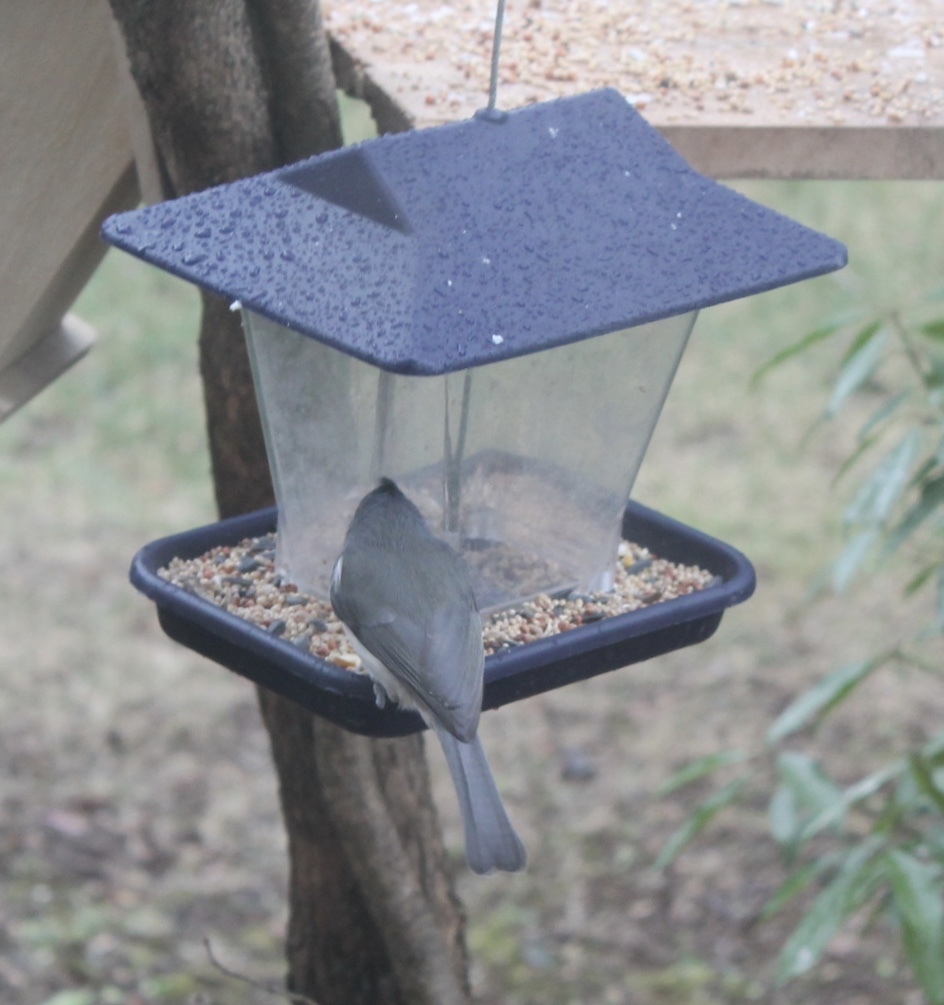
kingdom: Animalia
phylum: Chordata
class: Aves
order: Passeriformes
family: Paridae
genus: Baeolophus
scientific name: Baeolophus bicolor
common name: Tufted titmouse
